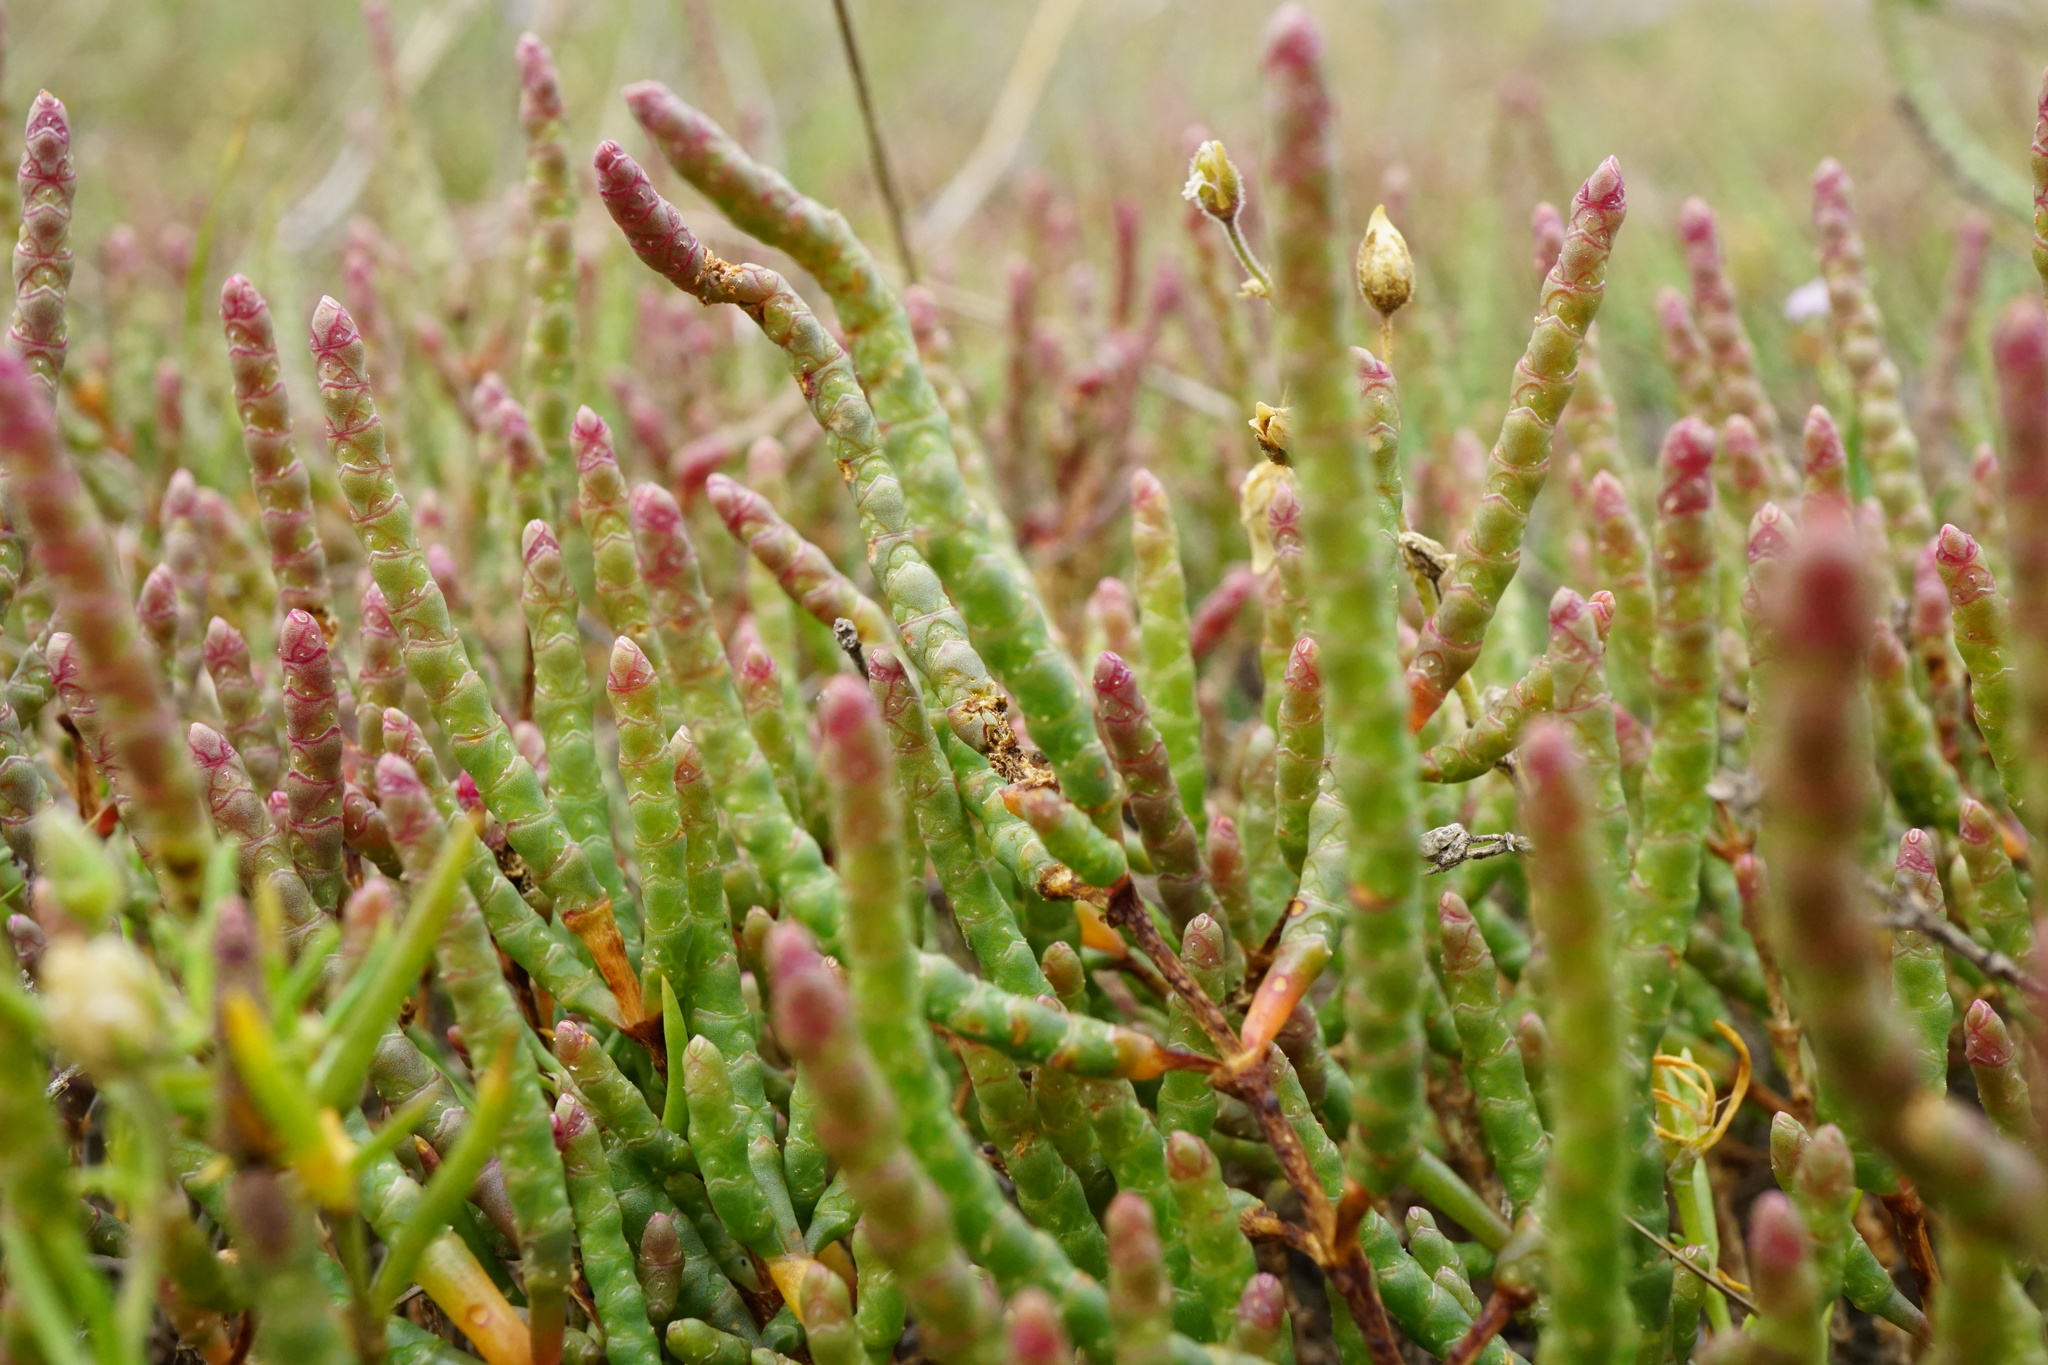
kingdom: Plantae
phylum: Tracheophyta
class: Magnoliopsida
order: Caryophyllales
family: Amaranthaceae
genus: Salicornia
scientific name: Salicornia perennans
